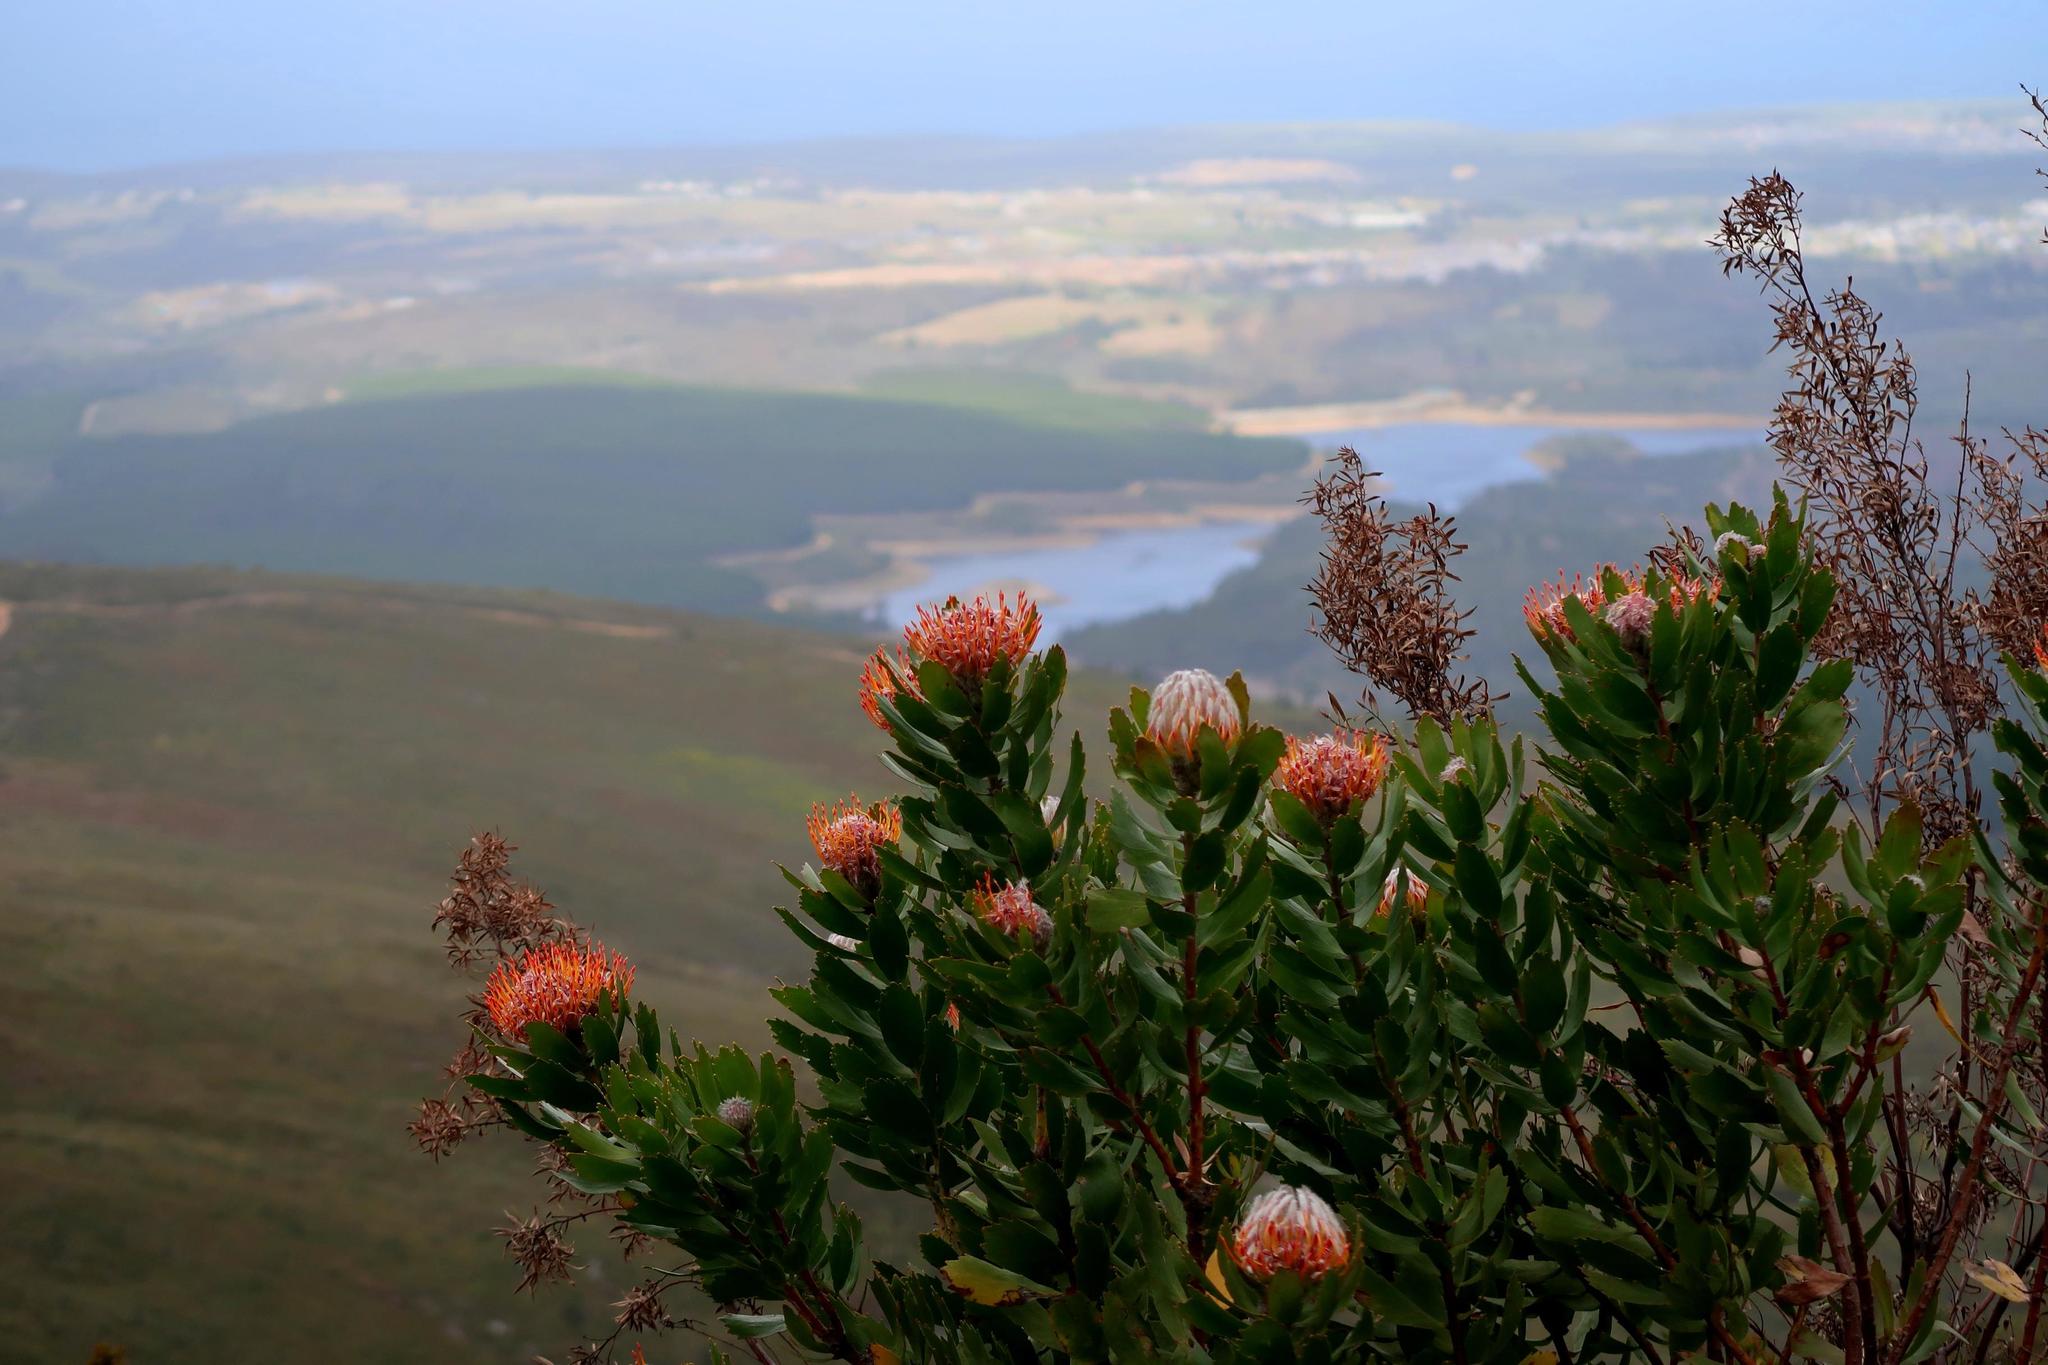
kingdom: Plantae
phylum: Tracheophyta
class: Magnoliopsida
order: Proteales
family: Proteaceae
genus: Leucospermum
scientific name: Leucospermum glabrum
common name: Outeniqua pincushion
